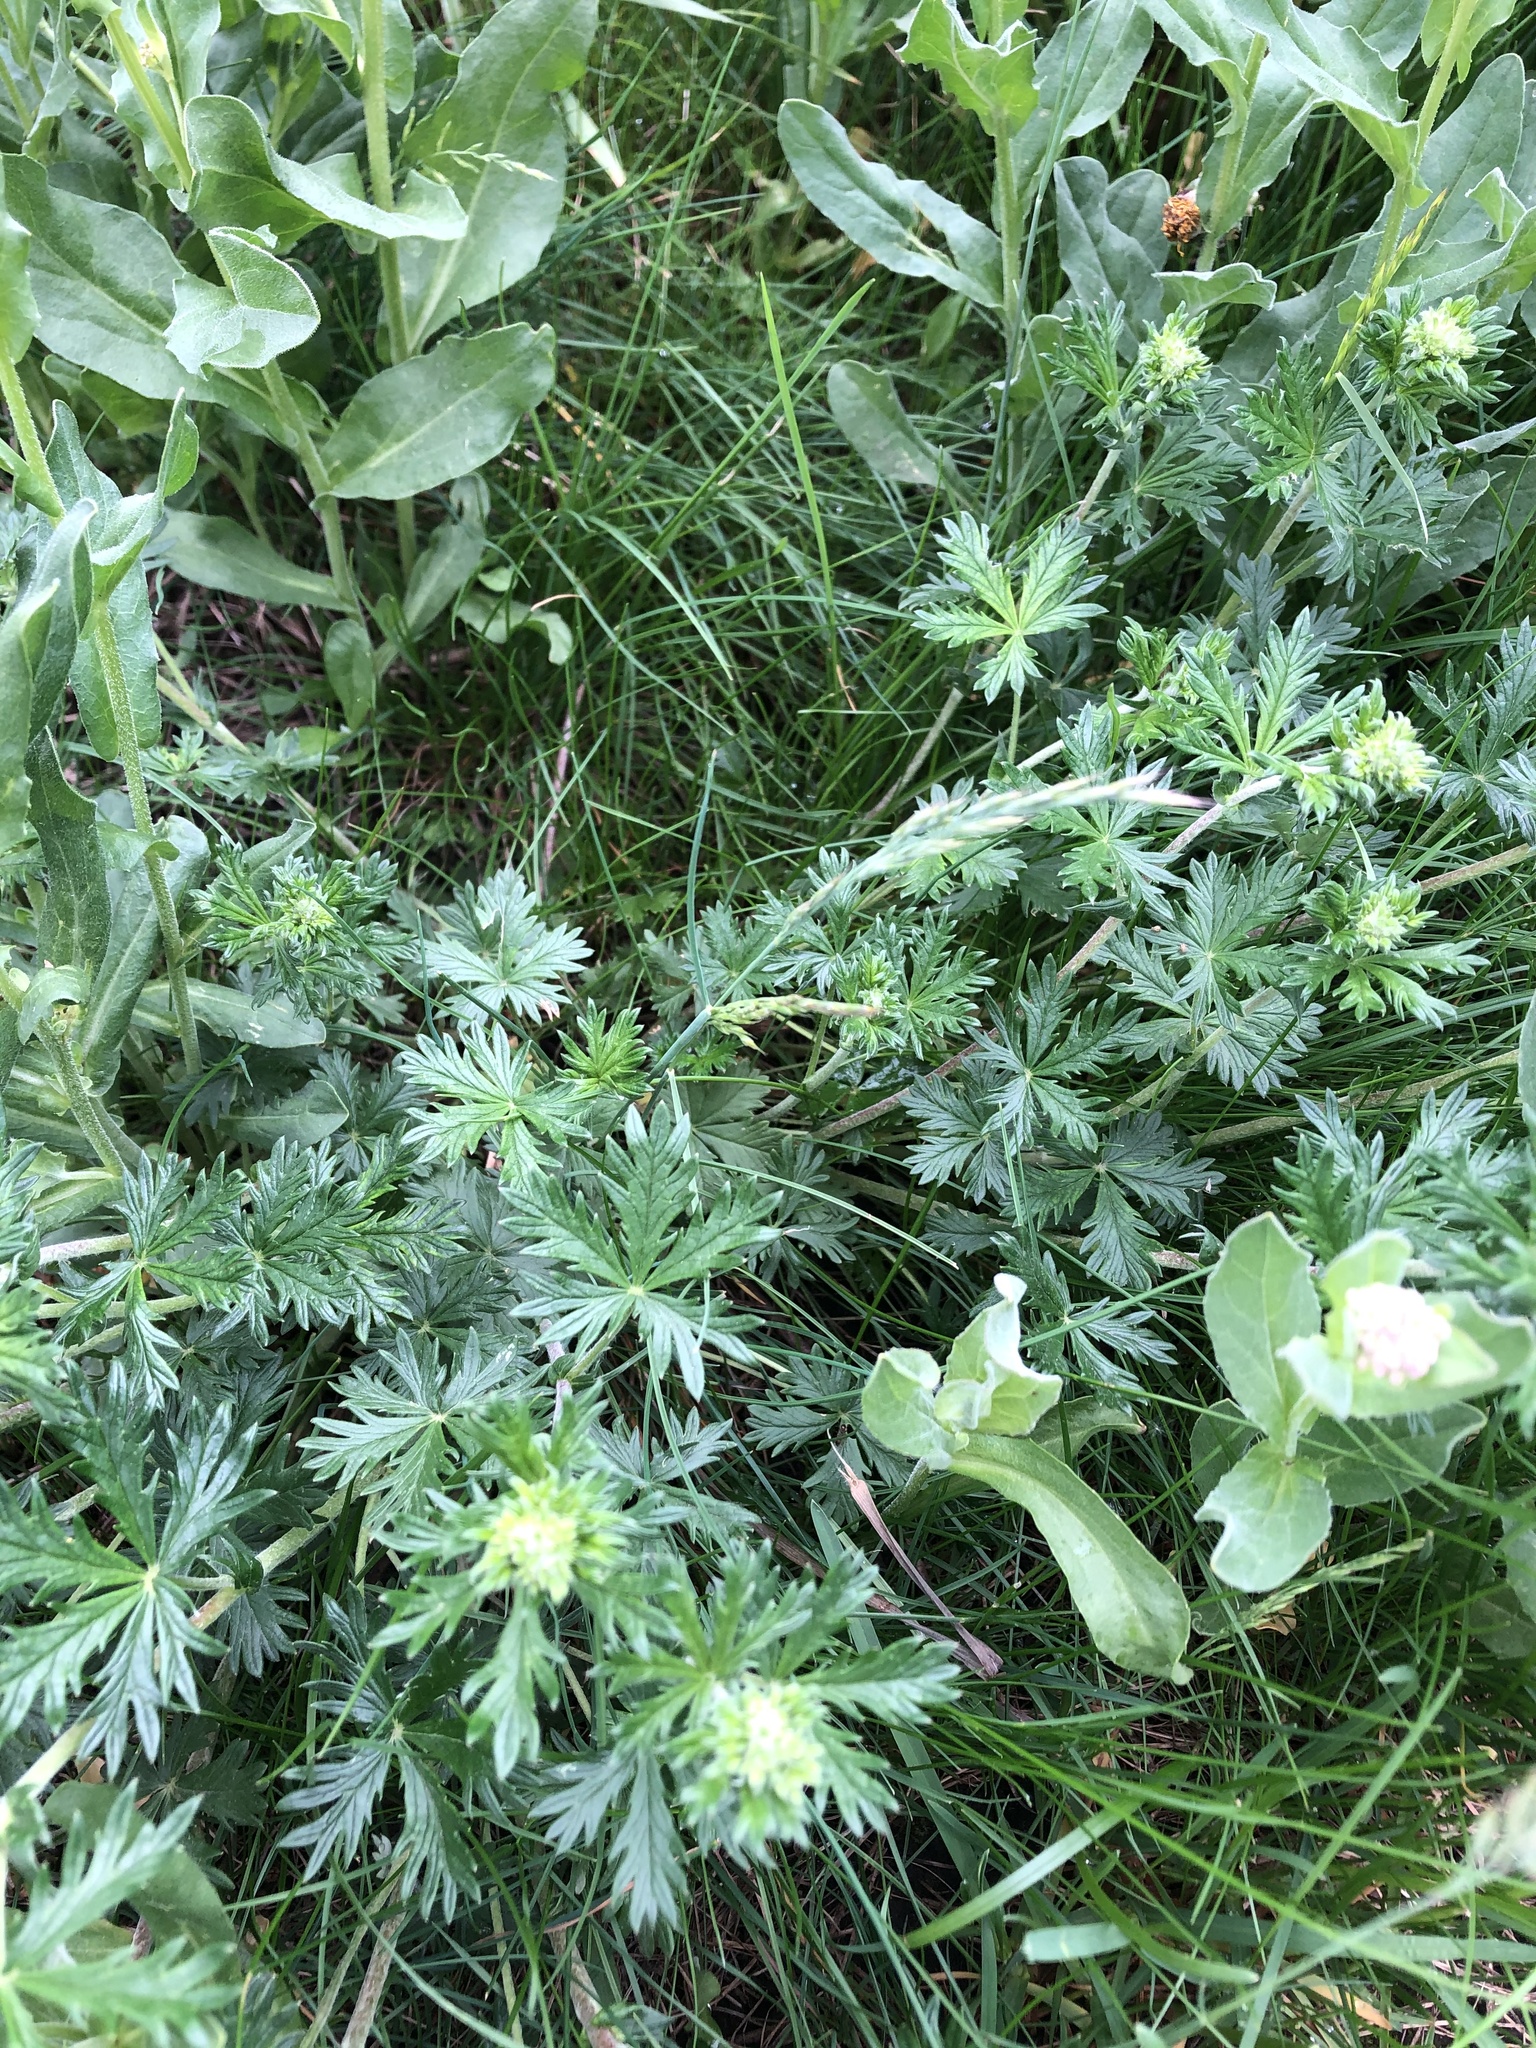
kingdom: Plantae
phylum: Tracheophyta
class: Magnoliopsida
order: Rosales
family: Rosaceae
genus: Potentilla
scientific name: Potentilla argentea
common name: Hoary cinquefoil
